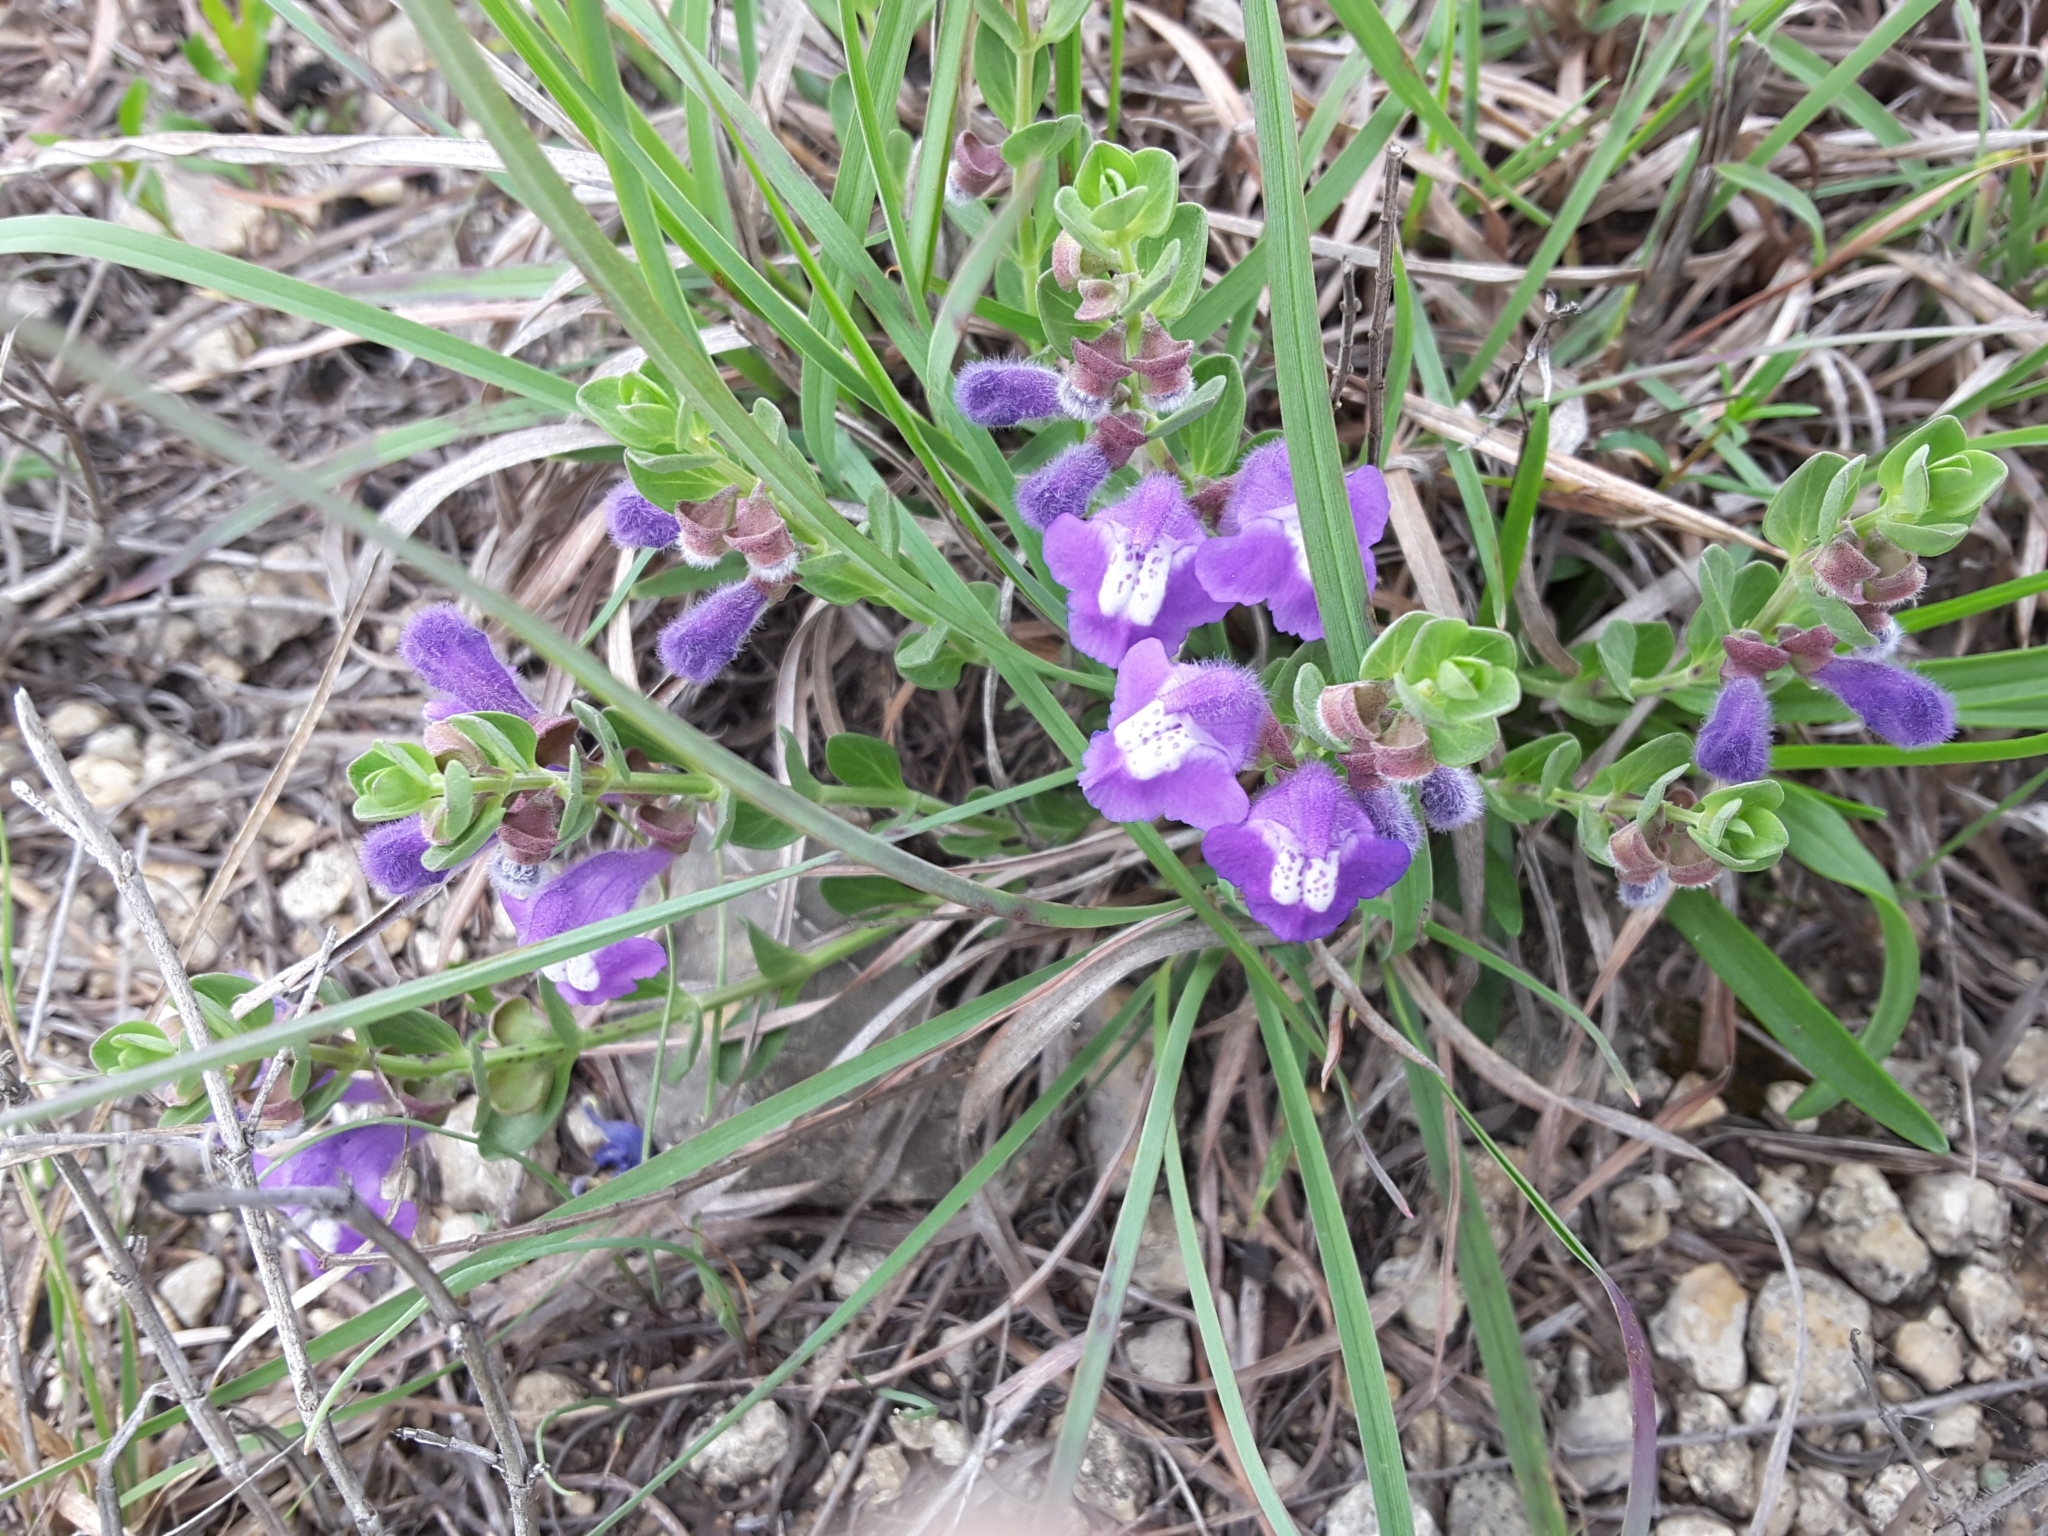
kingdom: Plantae
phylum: Tracheophyta
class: Magnoliopsida
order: Lamiales
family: Lamiaceae
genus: Scutellaria
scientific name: Scutellaria wrightii
